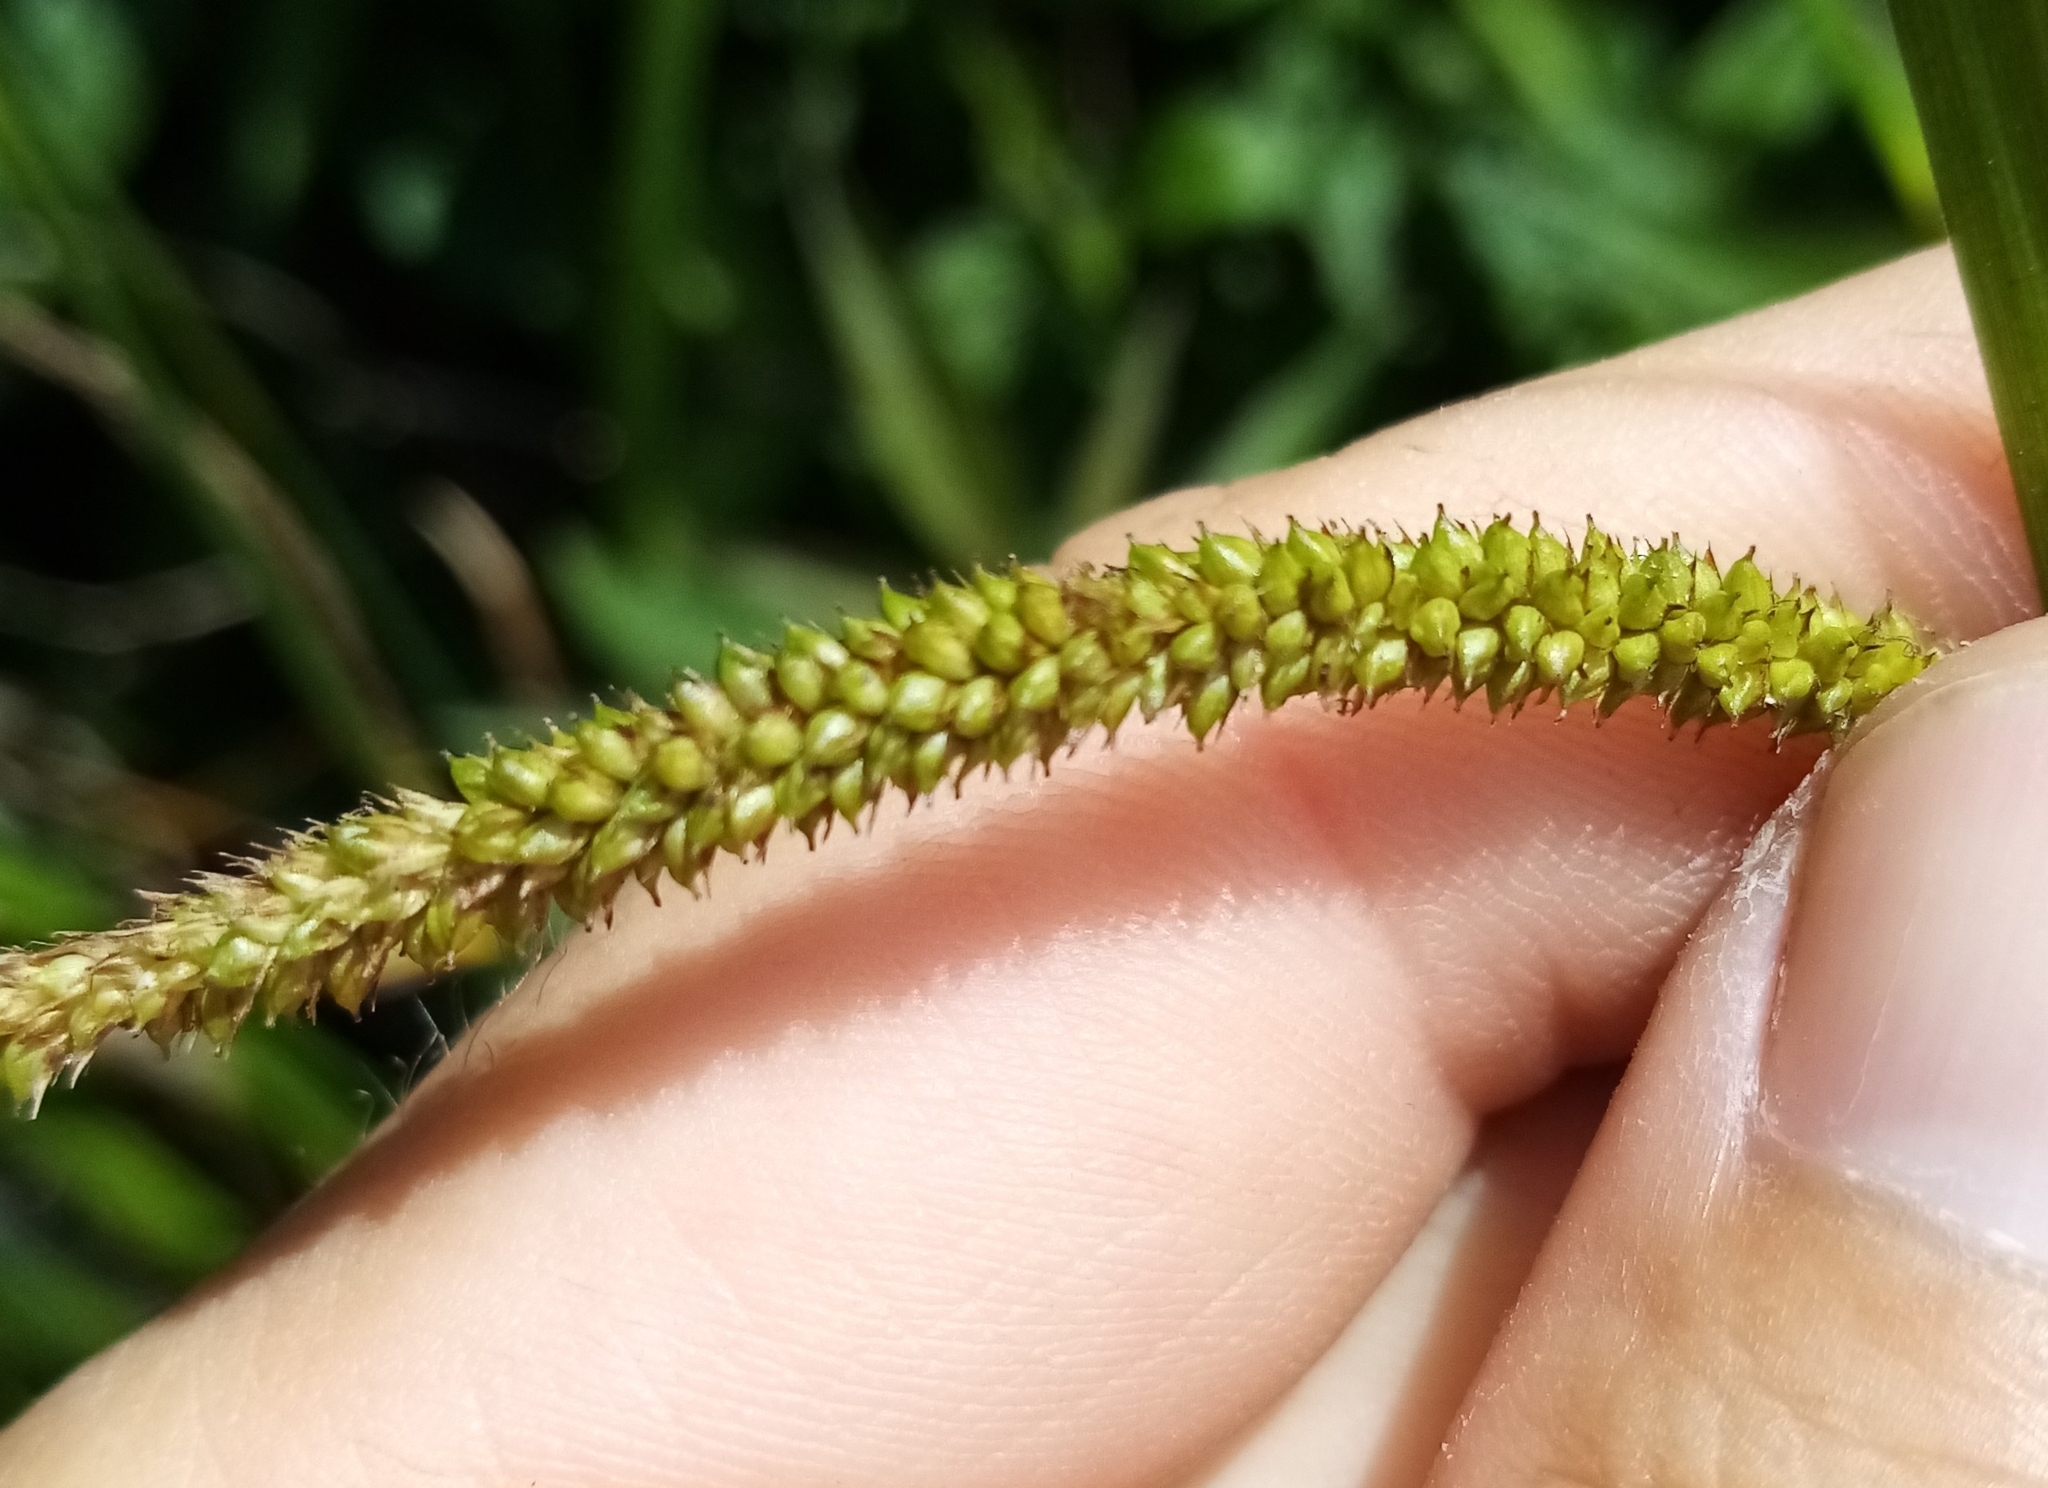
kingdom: Plantae
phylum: Tracheophyta
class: Liliopsida
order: Poales
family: Cyperaceae
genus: Carex
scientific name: Carex pendula
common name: Pendulous sedge
